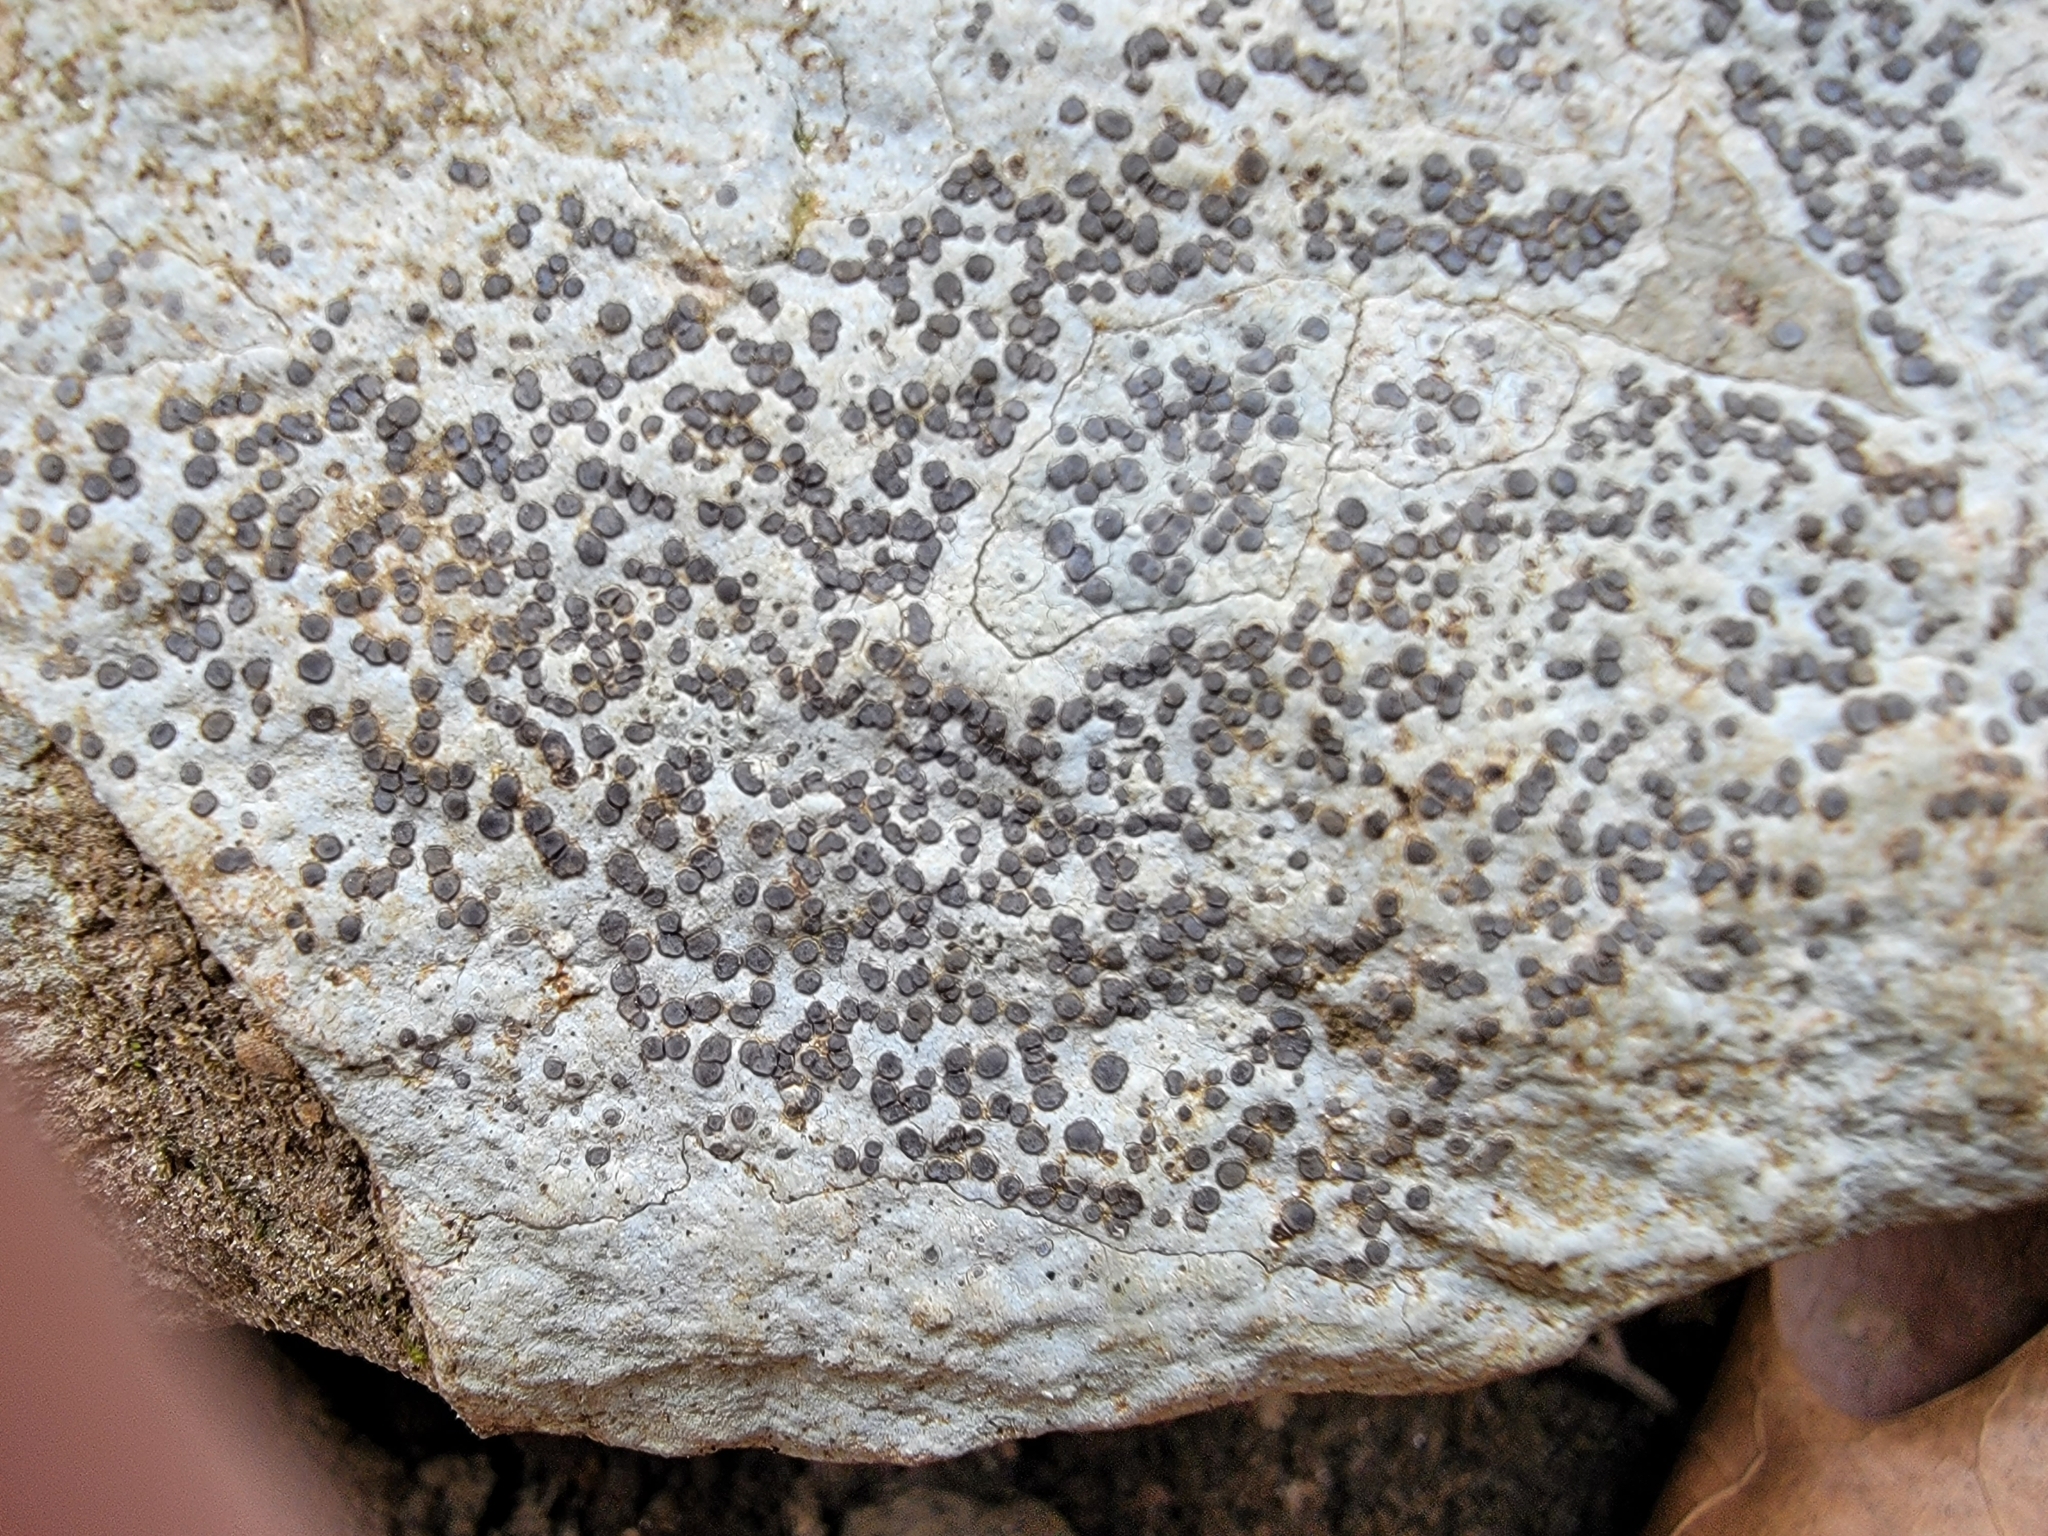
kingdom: Fungi
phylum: Ascomycota
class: Lecanoromycetes
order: Lecideales
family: Lecideaceae
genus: Porpidia
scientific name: Porpidia albocaerulescens
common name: Smokey-eyed boulder lichen
